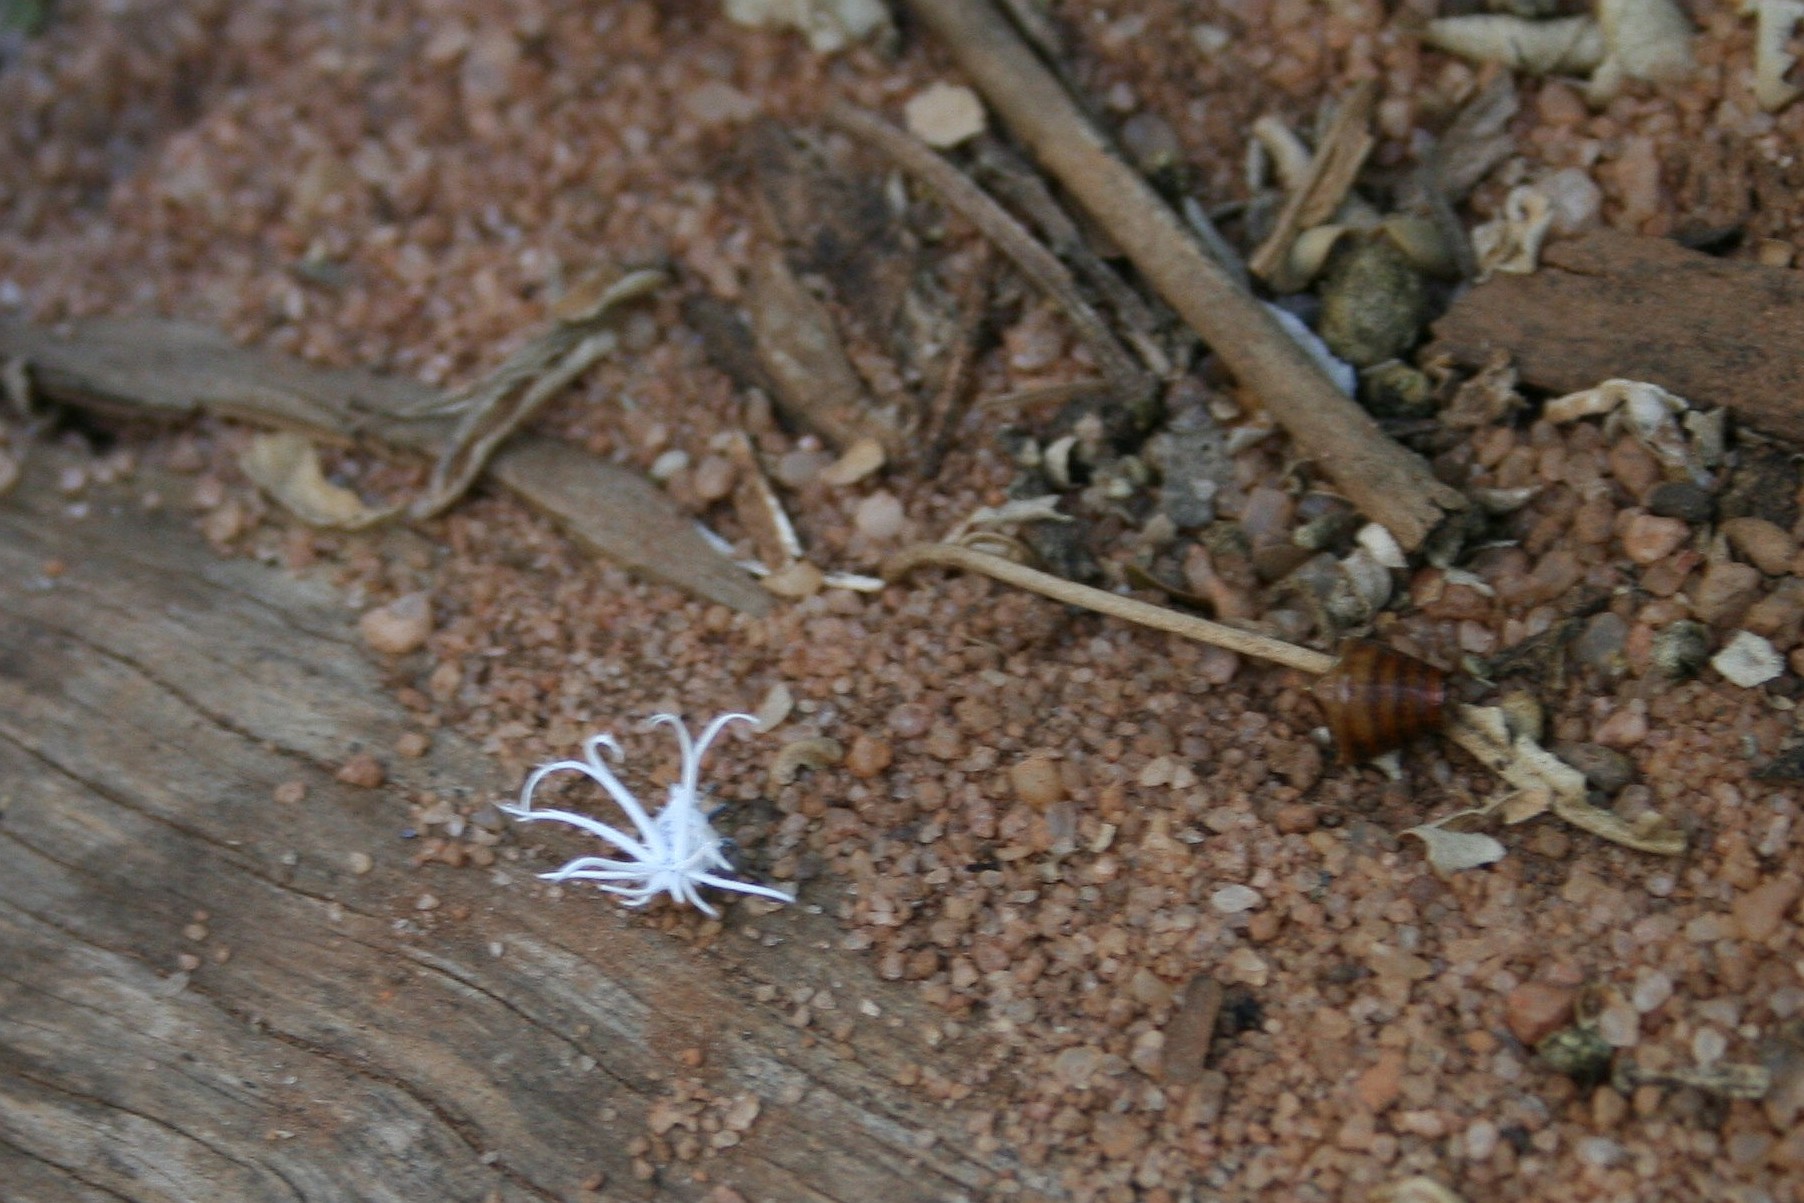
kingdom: Animalia
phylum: Arthropoda
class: Insecta
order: Hemiptera
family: Flatidae
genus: Flatida
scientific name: Flatida rosea
